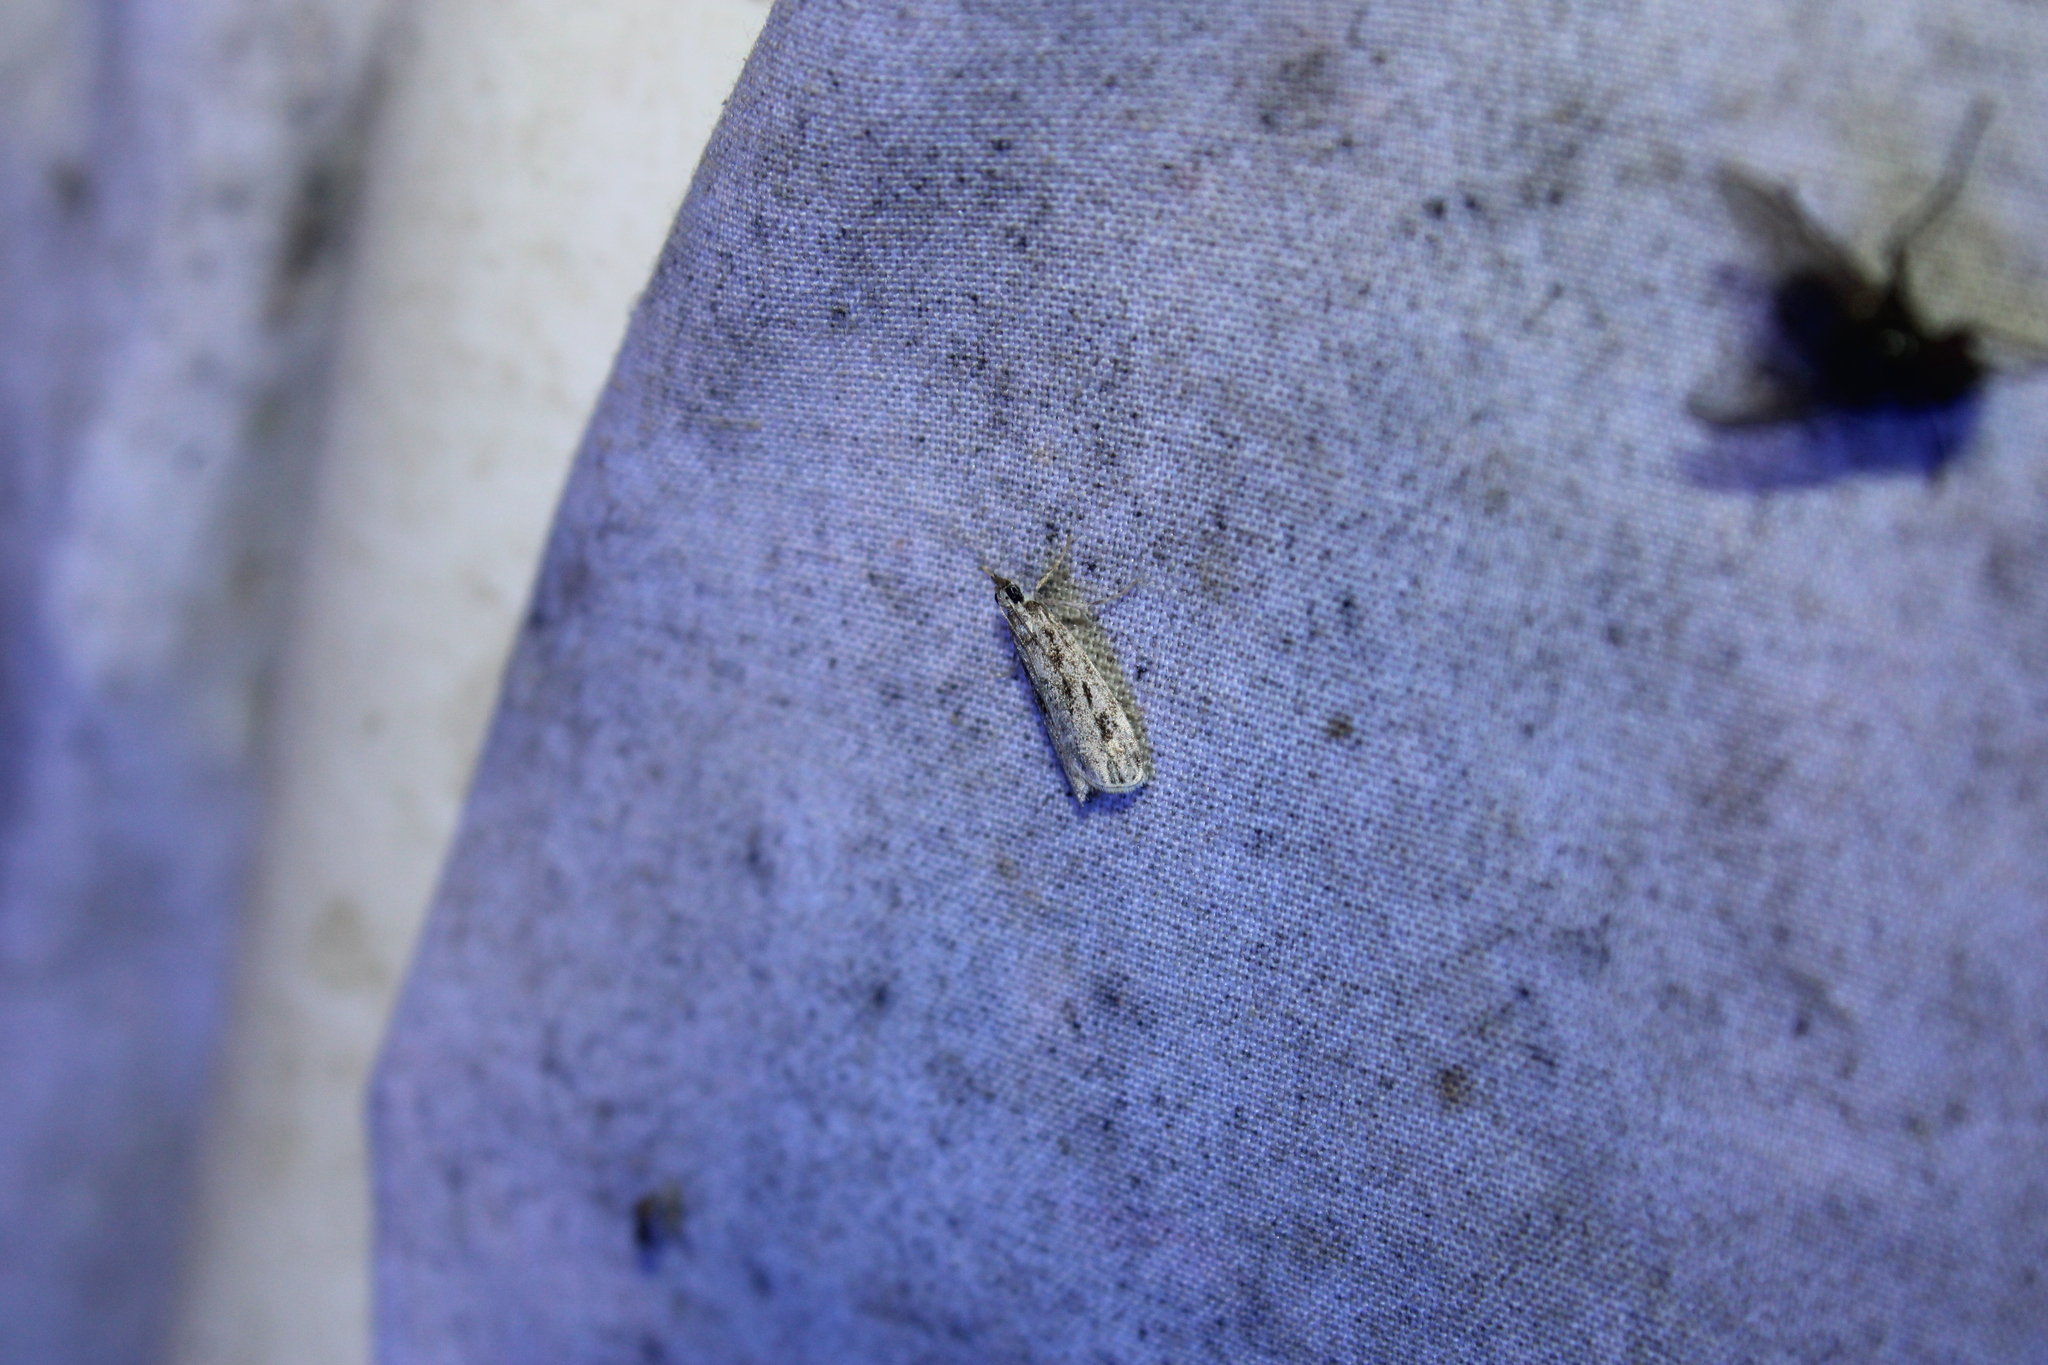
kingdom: Animalia
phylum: Arthropoda
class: Insecta
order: Lepidoptera
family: Crambidae
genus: Eudonia
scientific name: Eudonia strigalis
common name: Striped eudonia moth
